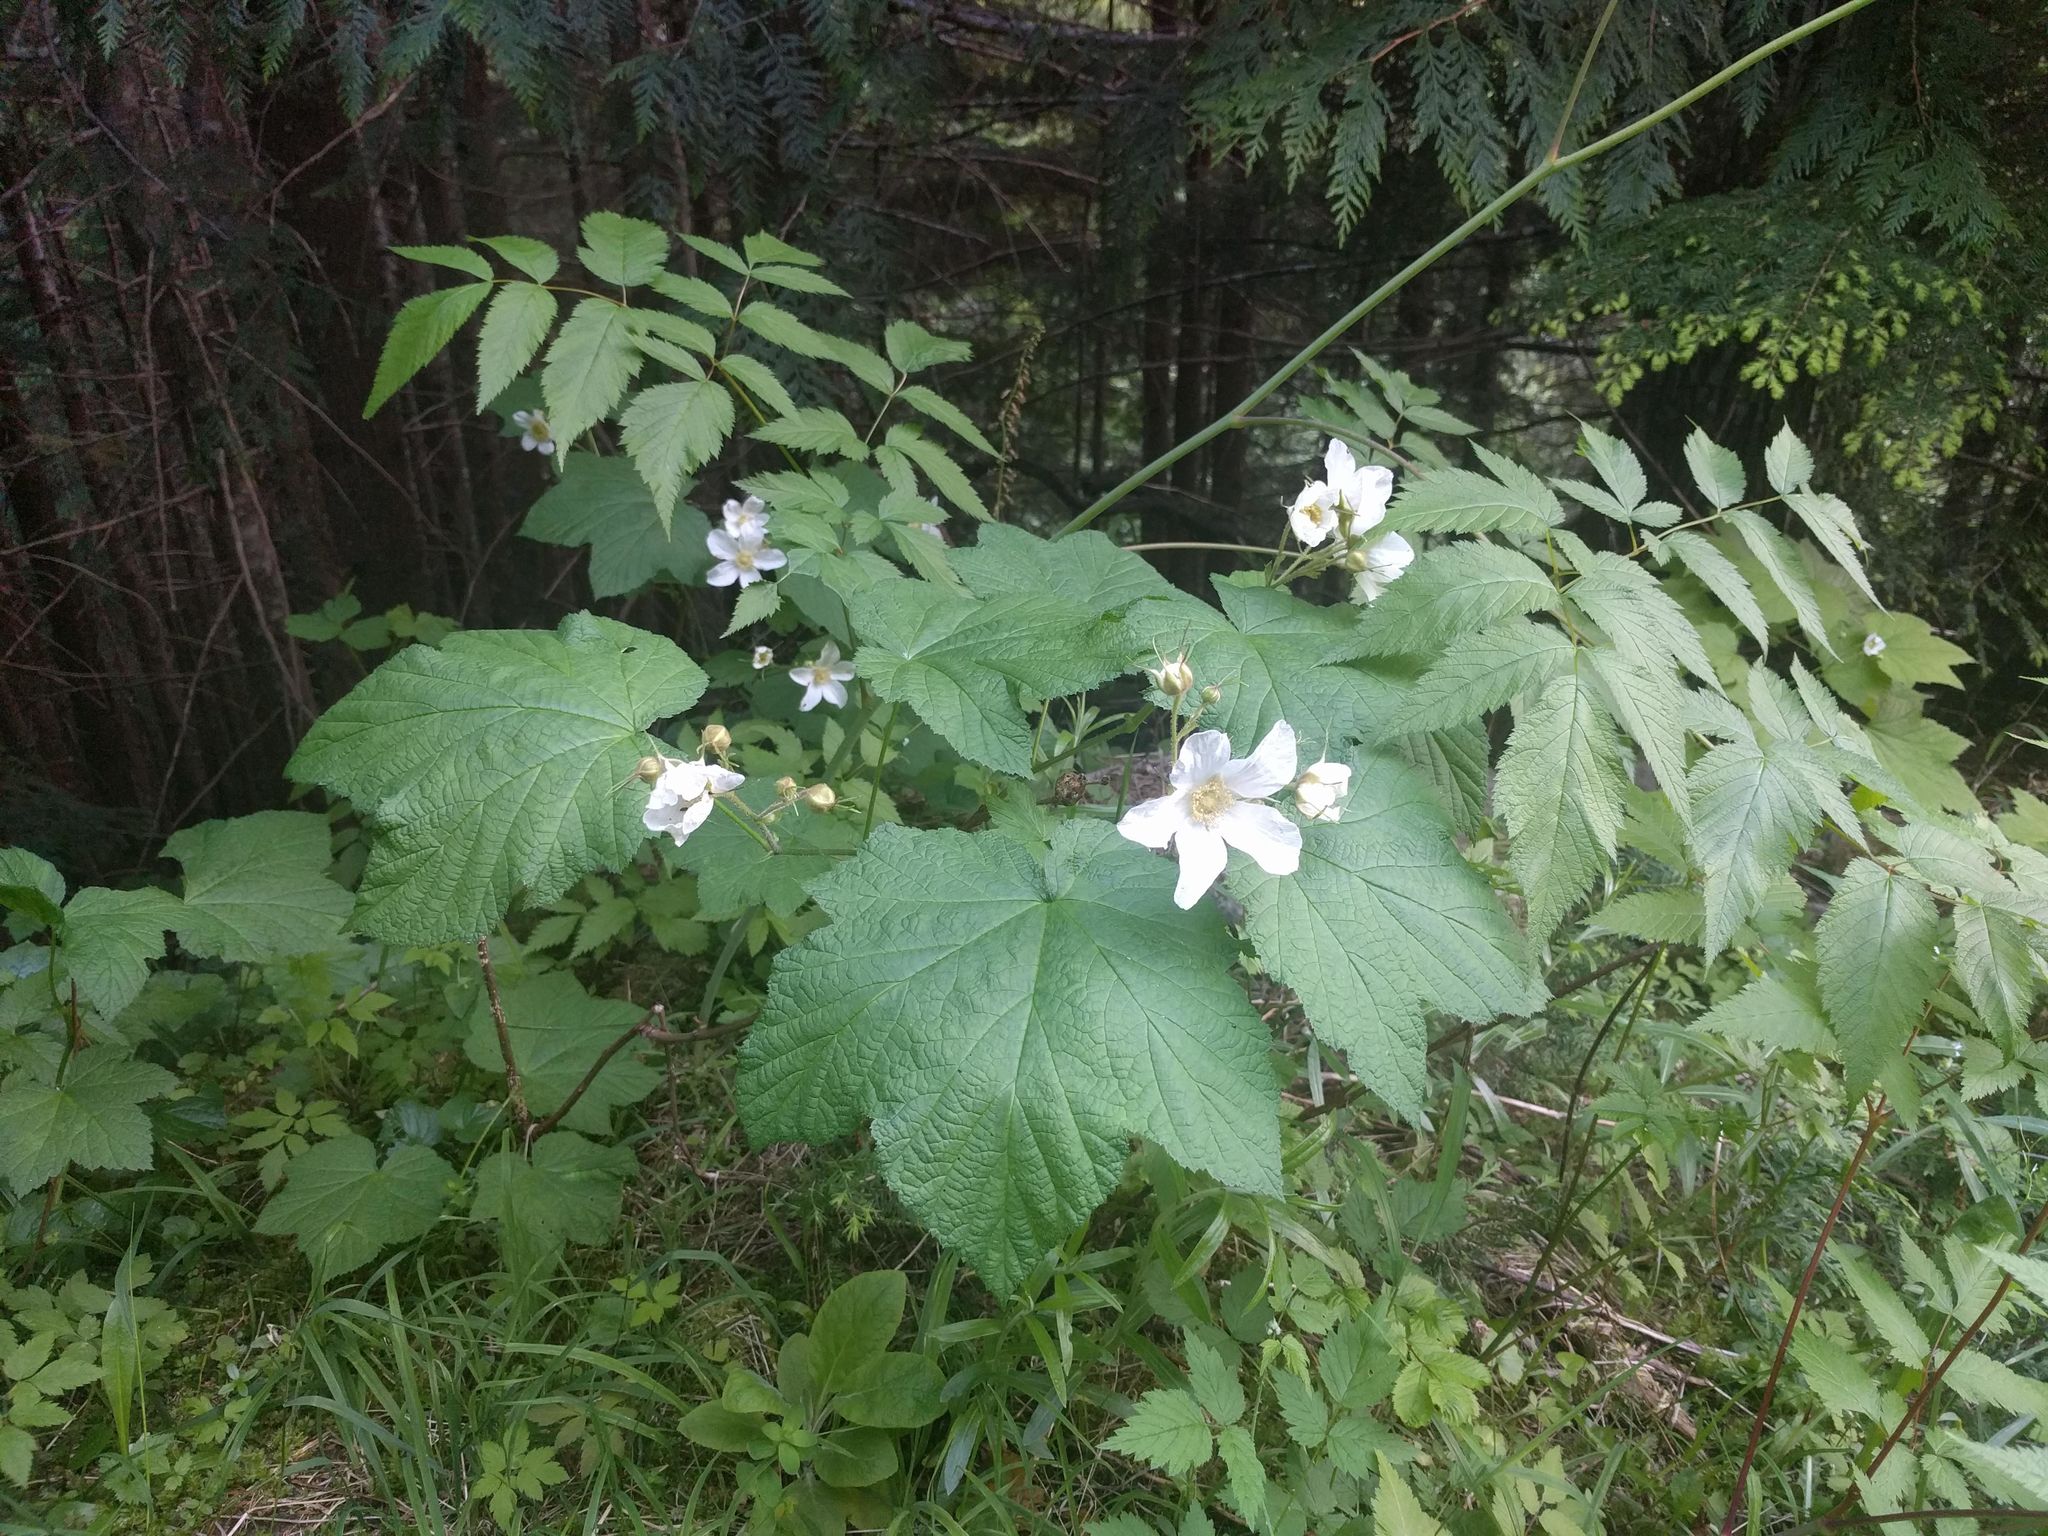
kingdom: Plantae
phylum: Tracheophyta
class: Magnoliopsida
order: Rosales
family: Rosaceae
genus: Rubus
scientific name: Rubus parviflorus
